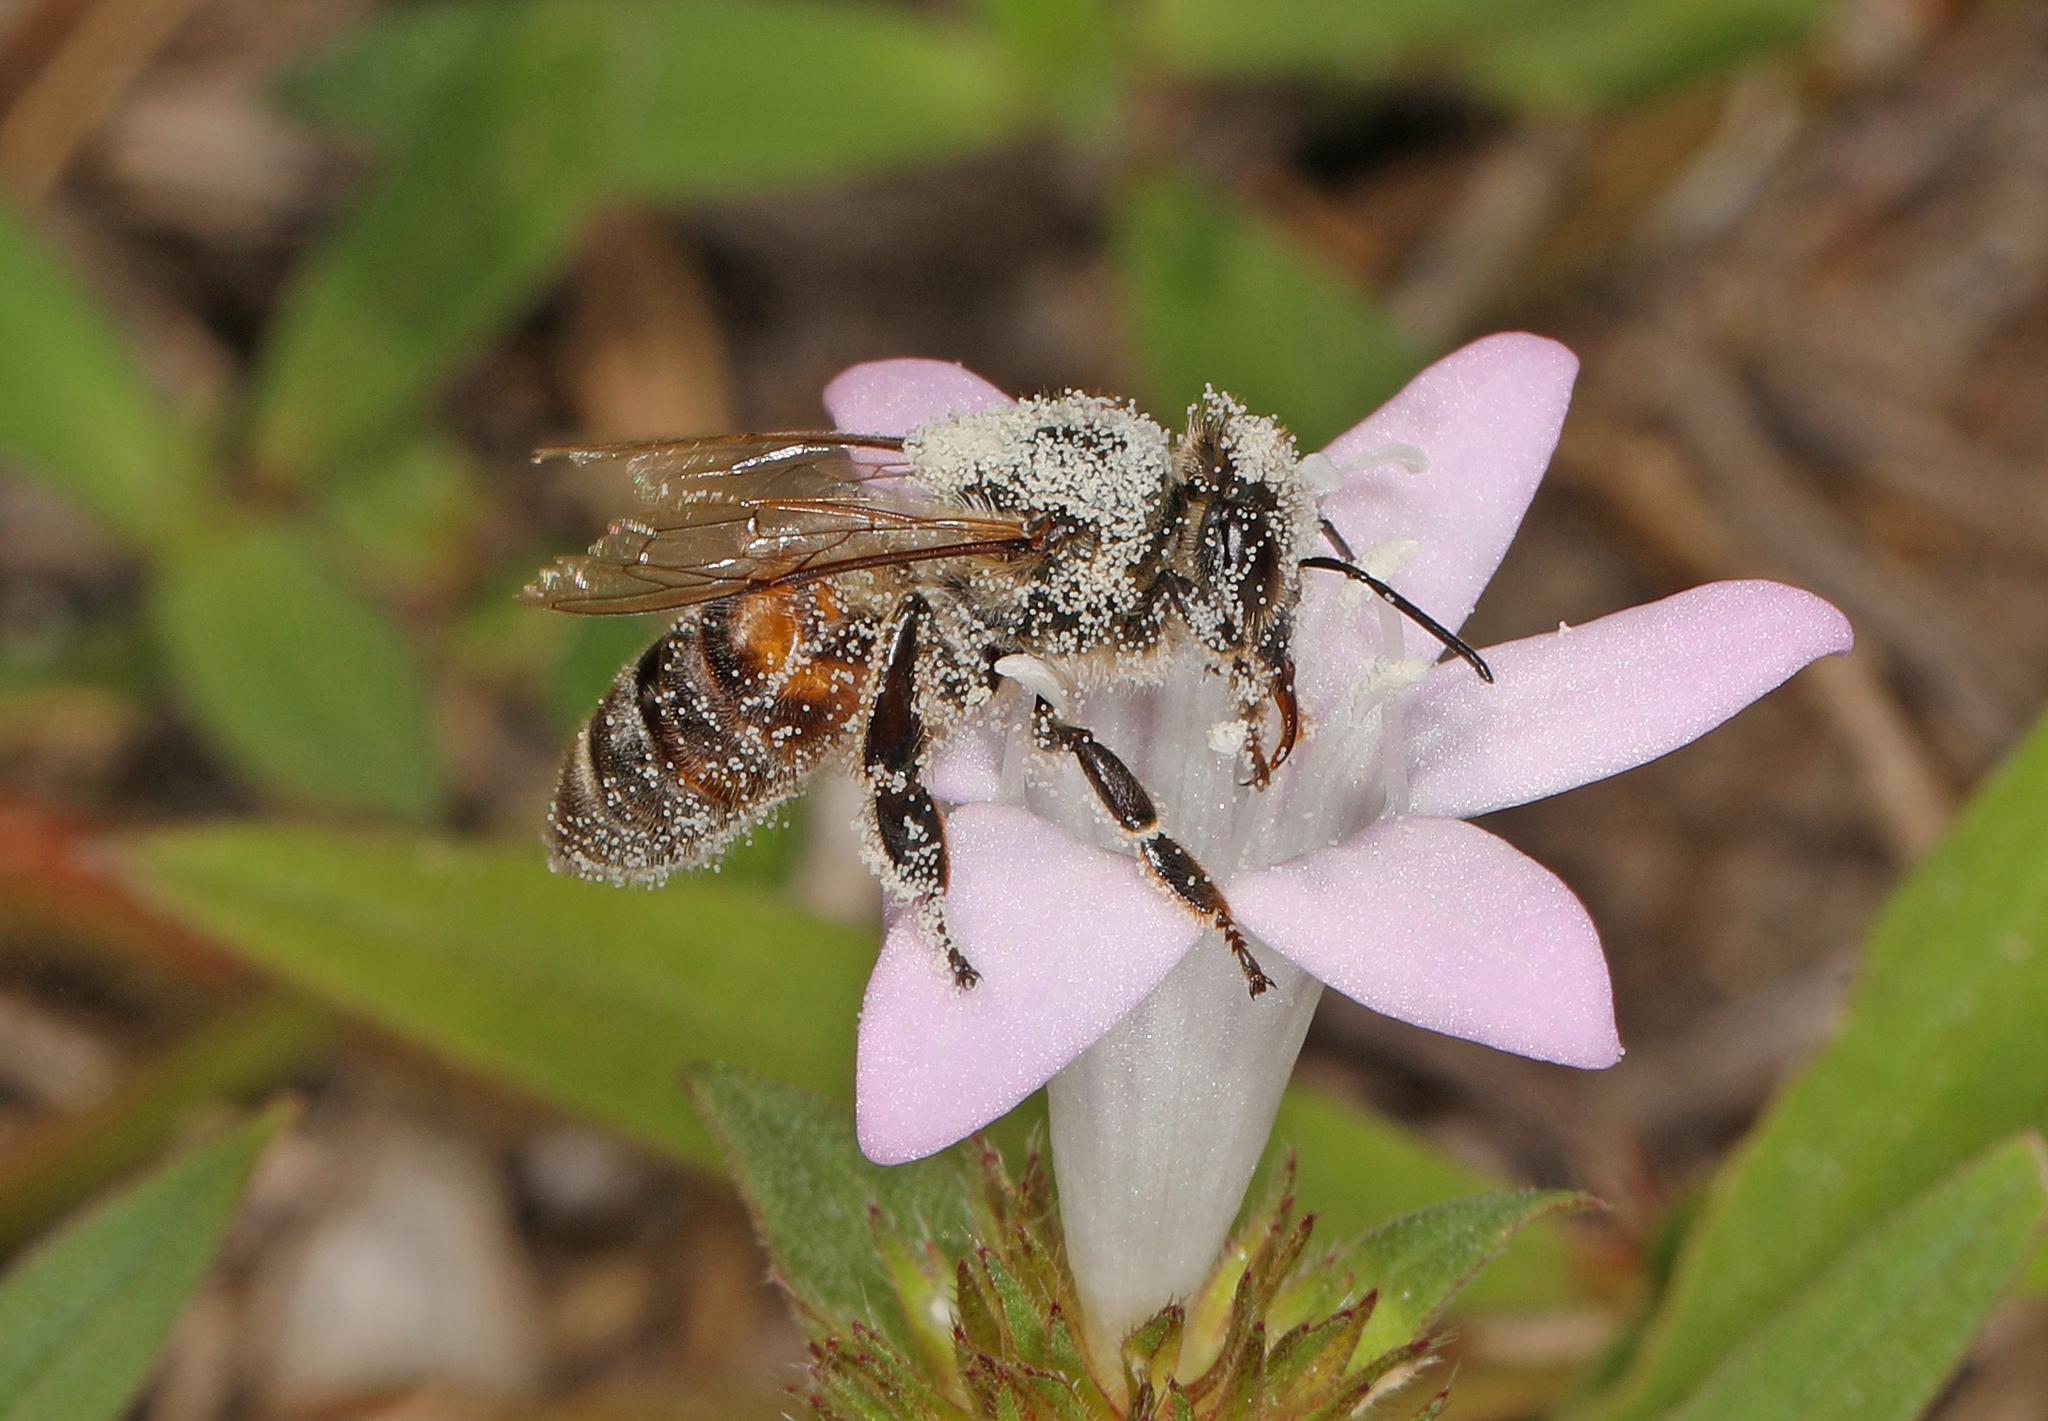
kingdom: Animalia
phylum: Arthropoda
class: Insecta
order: Hymenoptera
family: Apidae
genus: Apis
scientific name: Apis mellifera
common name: Honey bee
